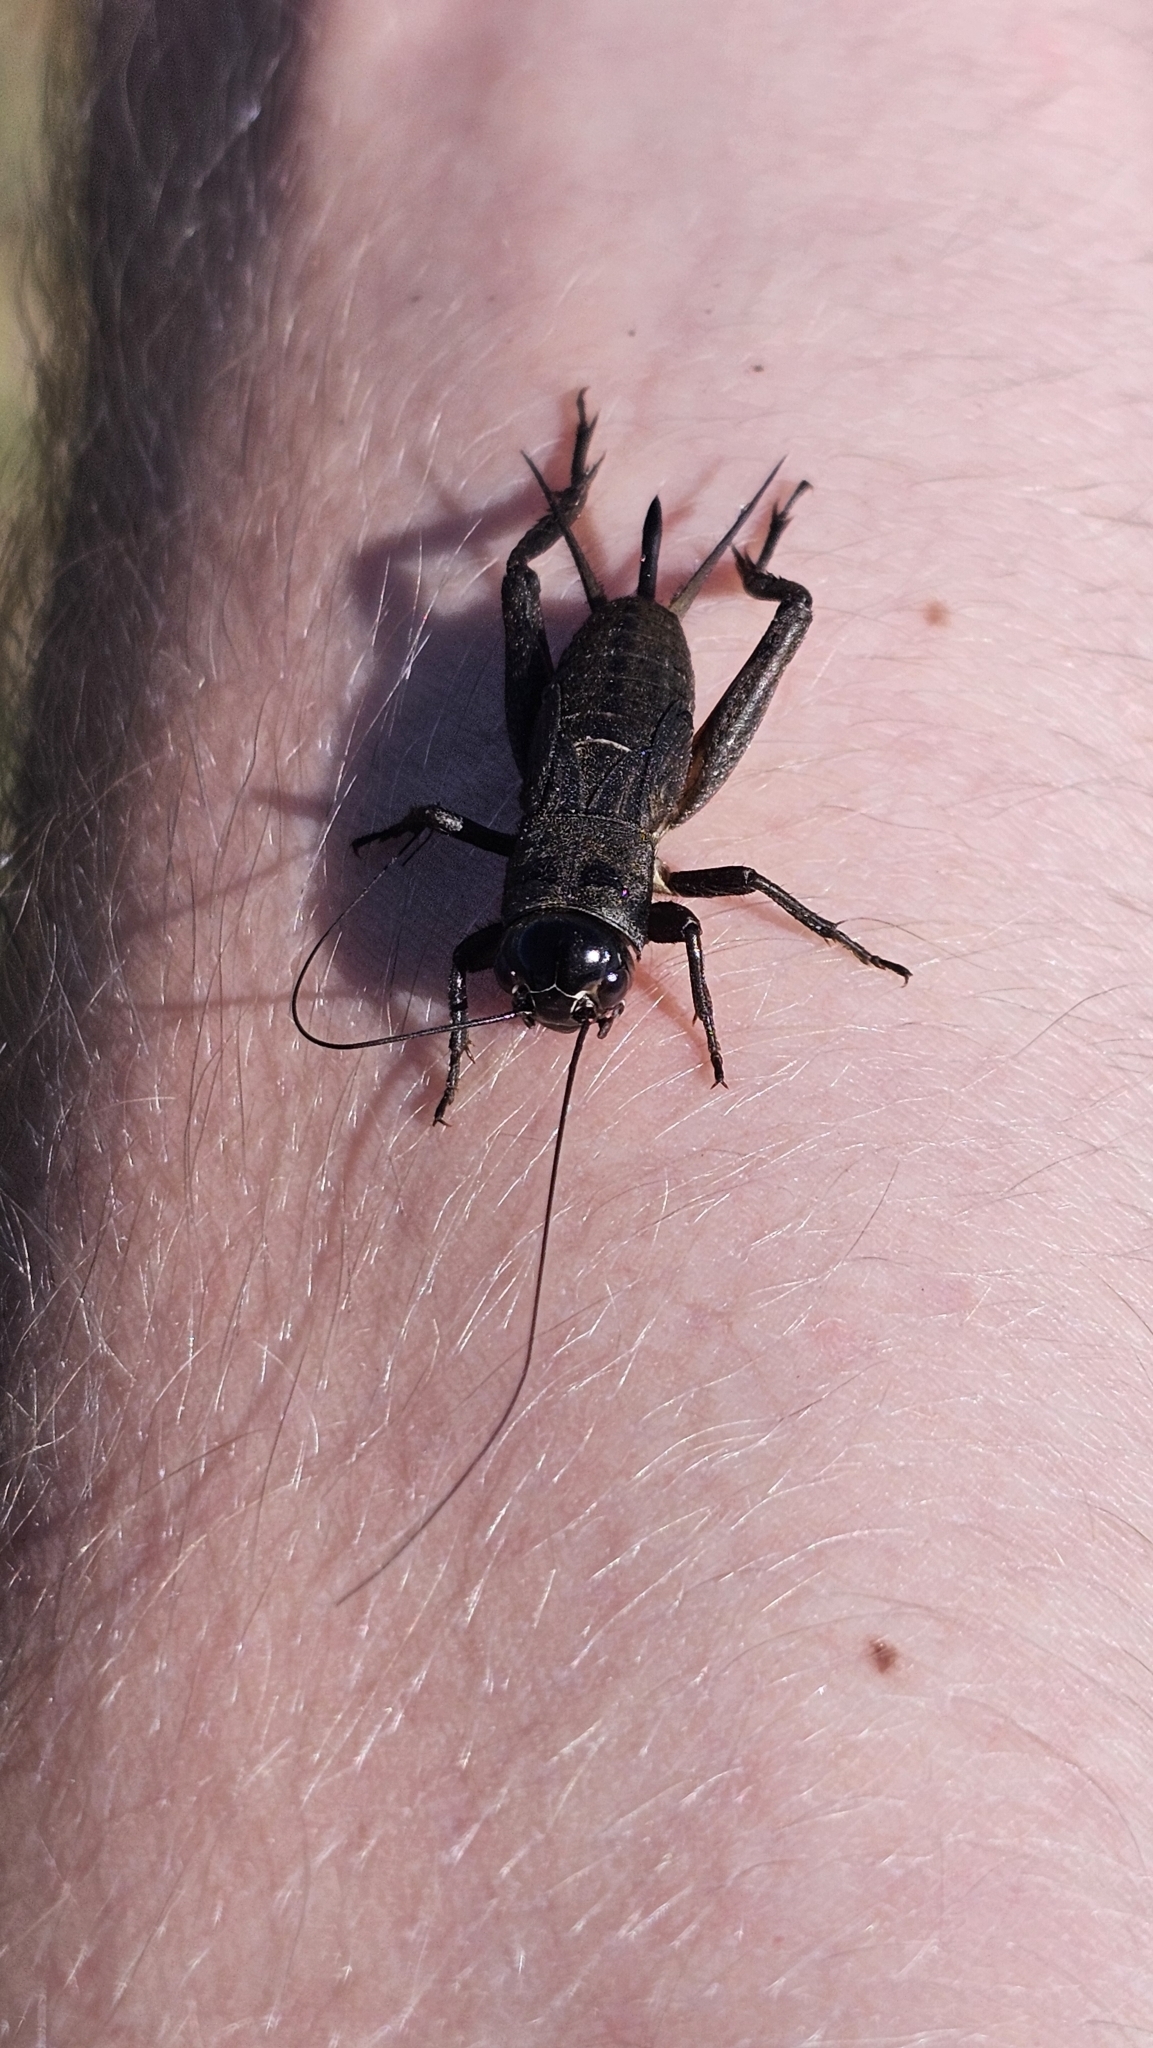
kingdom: Animalia
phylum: Arthropoda
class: Insecta
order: Orthoptera
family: Gryllidae
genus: Teleogryllus
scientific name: Teleogryllus commodus
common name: Black field cricket
